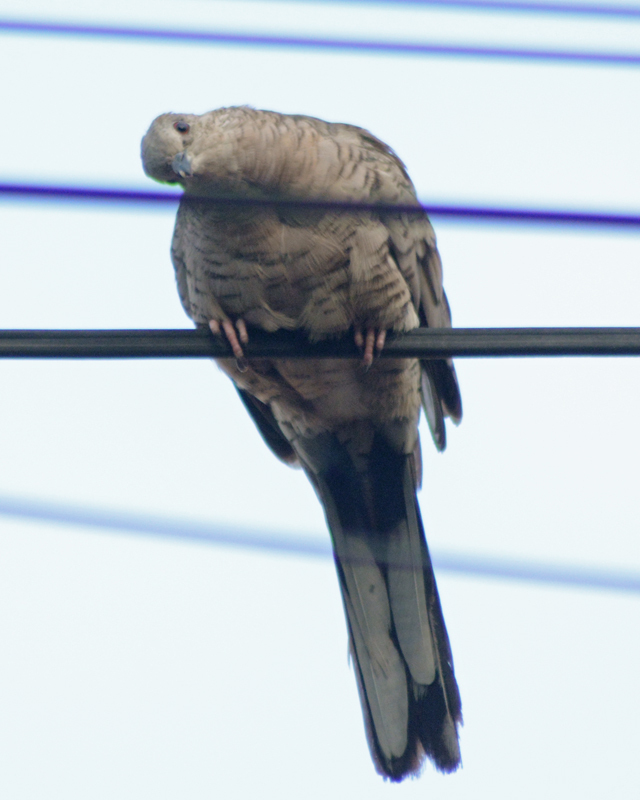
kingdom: Animalia
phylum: Chordata
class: Aves
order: Columbiformes
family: Columbidae
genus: Columbina
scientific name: Columbina inca
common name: Inca dove
